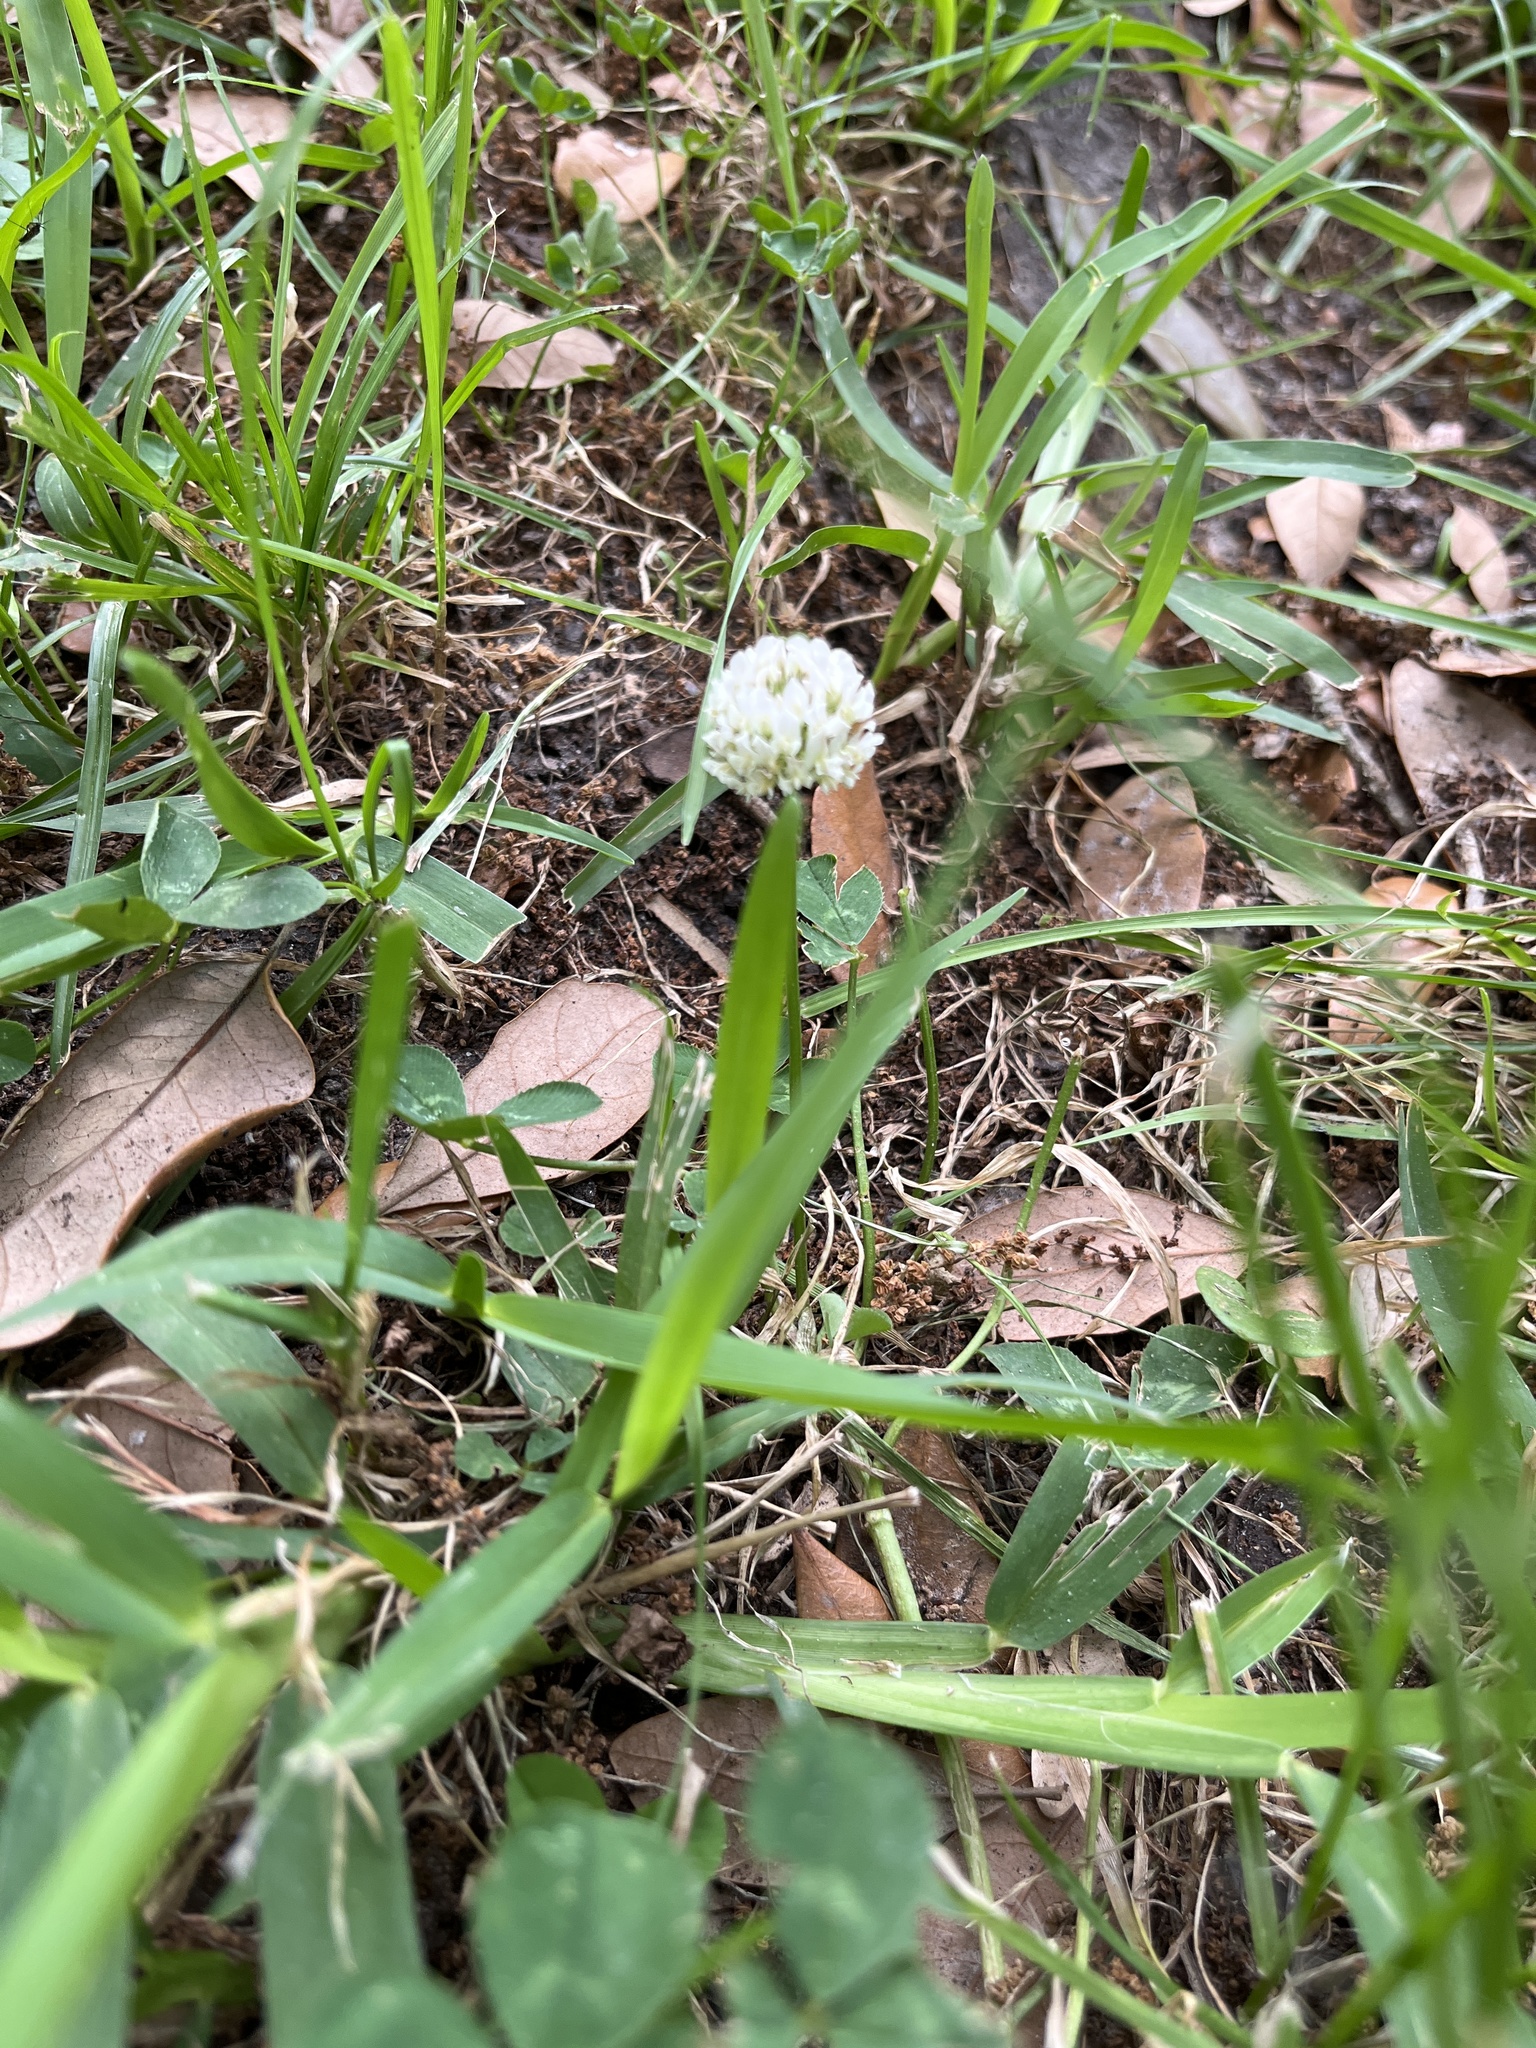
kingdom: Plantae
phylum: Tracheophyta
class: Magnoliopsida
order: Fabales
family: Fabaceae
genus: Trifolium
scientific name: Trifolium repens
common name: White clover
